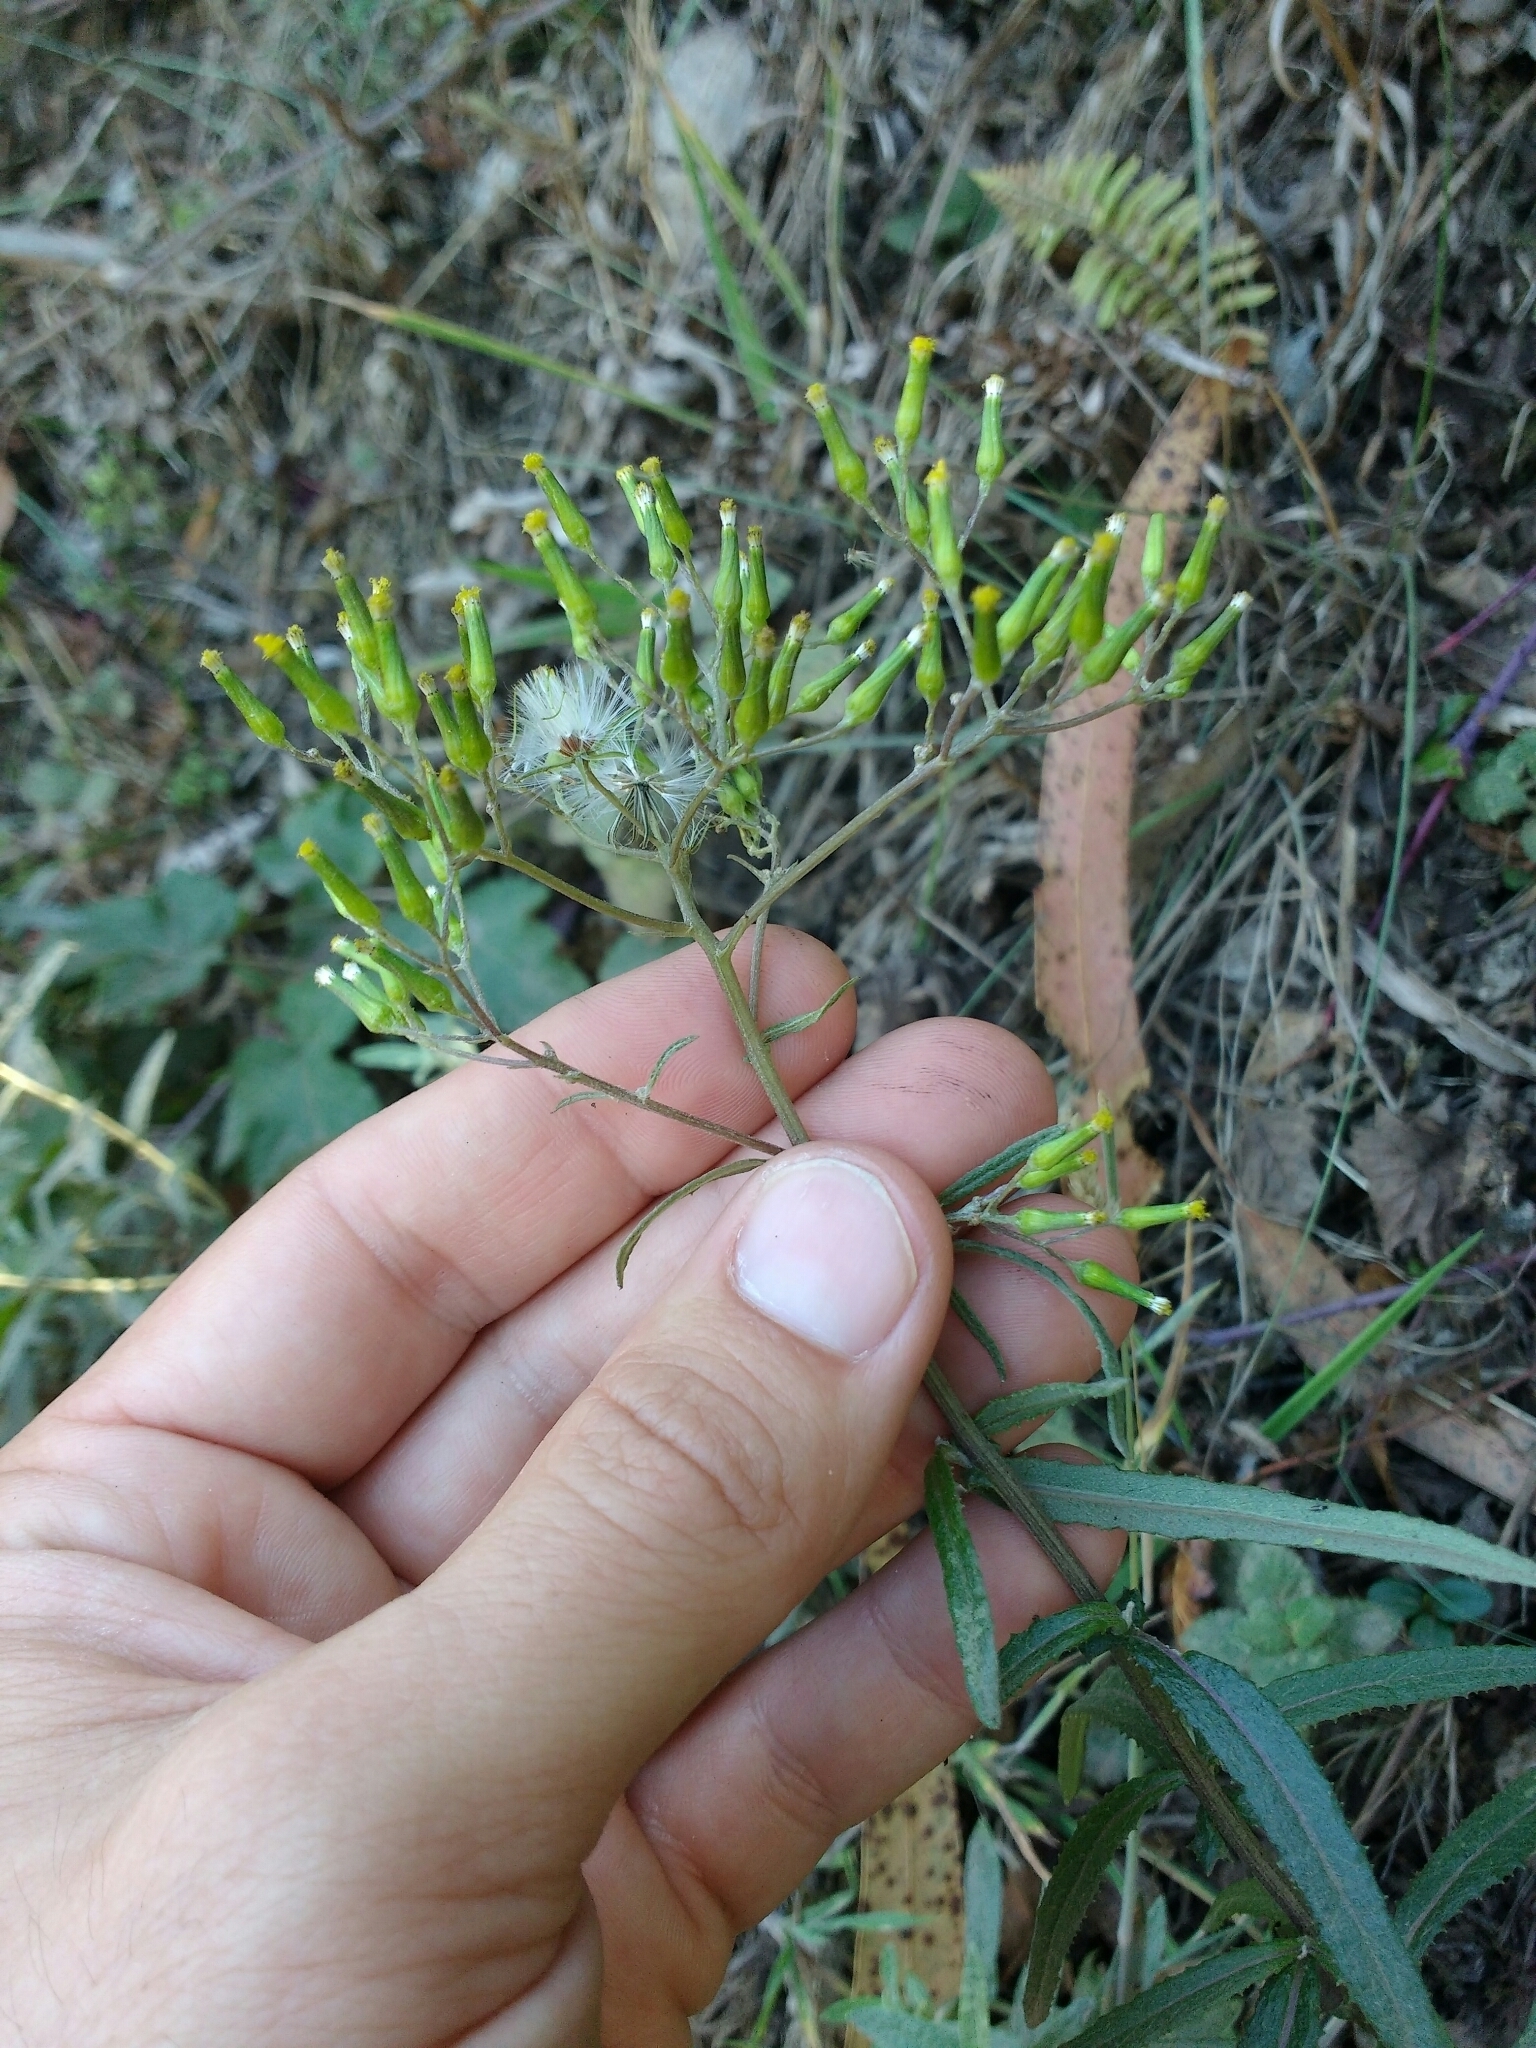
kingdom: Plantae
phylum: Tracheophyta
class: Magnoliopsida
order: Asterales
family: Asteraceae
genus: Senecio
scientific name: Senecio minimus
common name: Toothed fireweed
